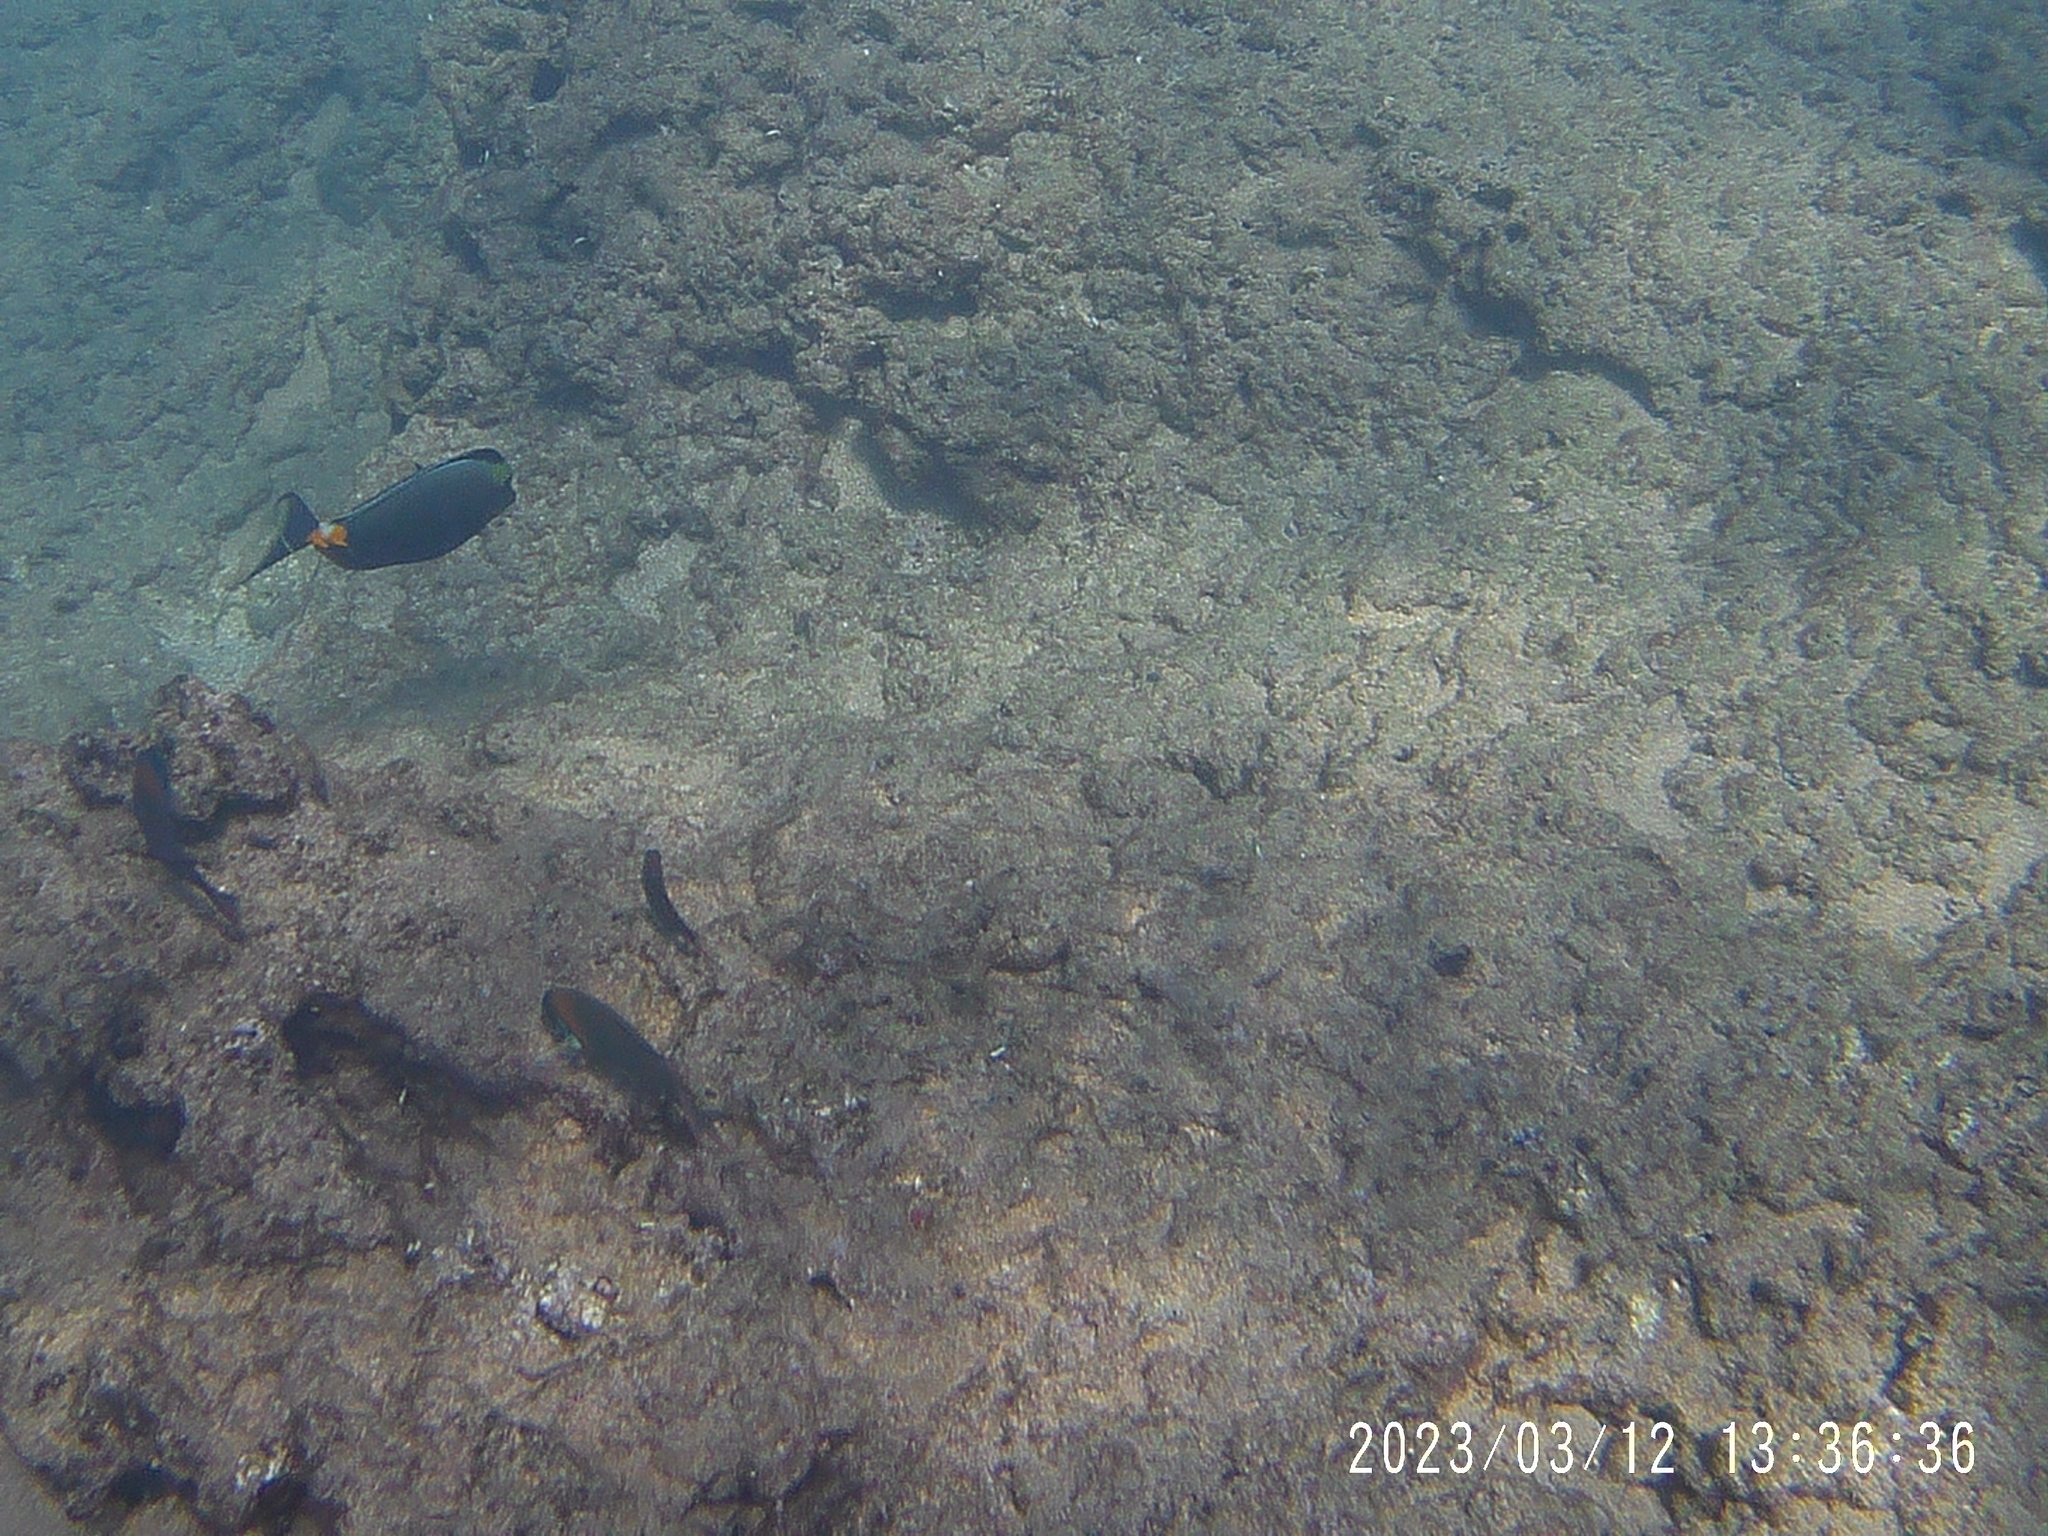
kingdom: Animalia
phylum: Chordata
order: Perciformes
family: Labridae
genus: Thalassoma
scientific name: Thalassoma duperrey
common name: Saddle wrasse
